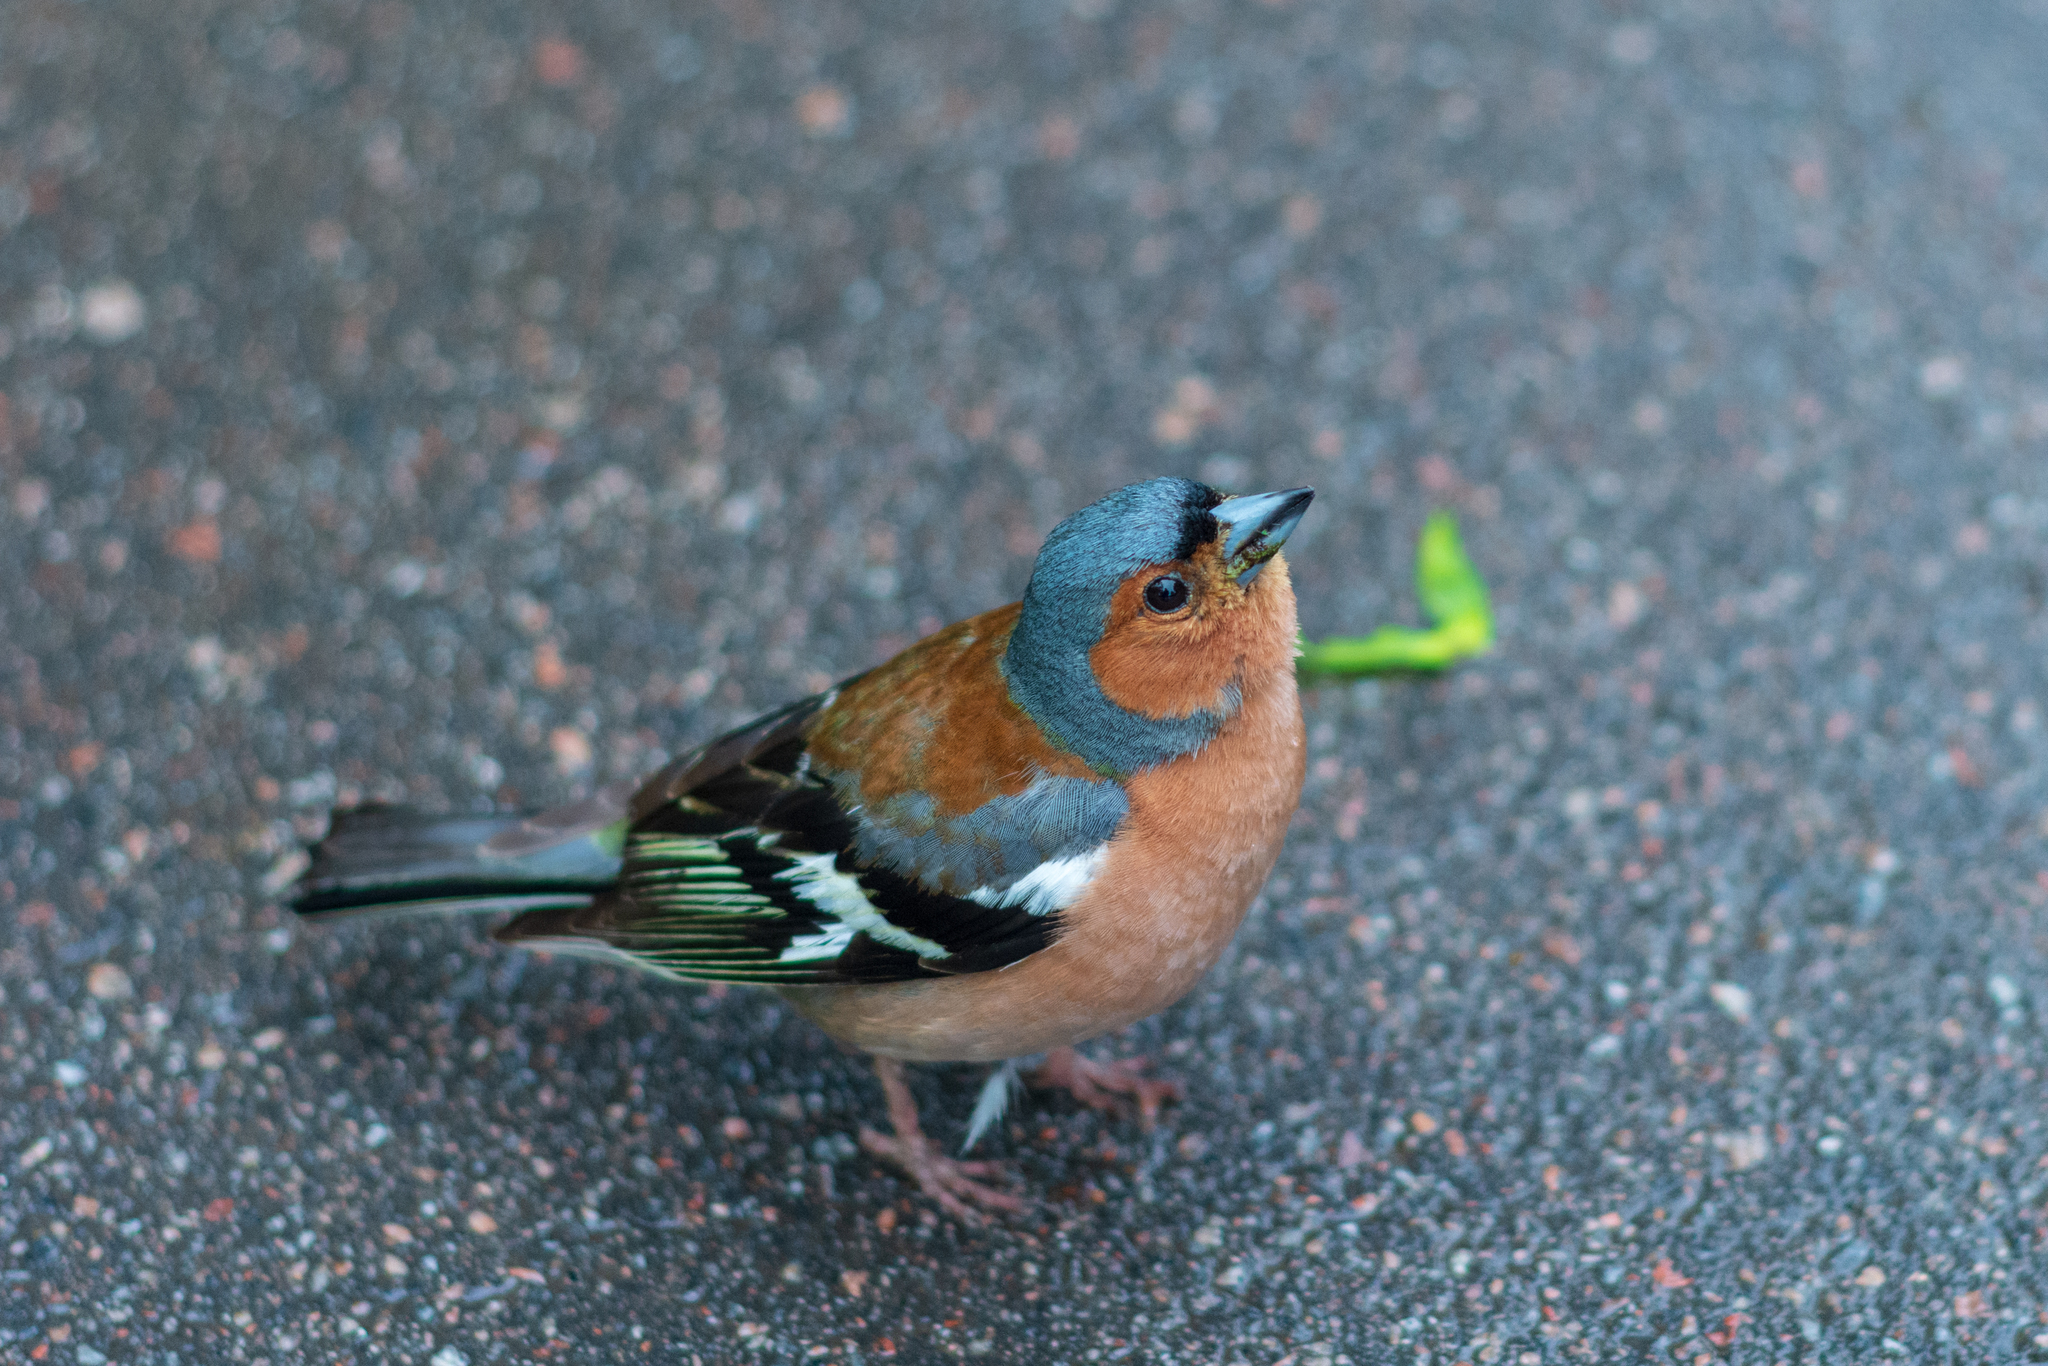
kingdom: Animalia
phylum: Chordata
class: Aves
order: Passeriformes
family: Fringillidae
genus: Fringilla
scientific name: Fringilla coelebs
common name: Common chaffinch
